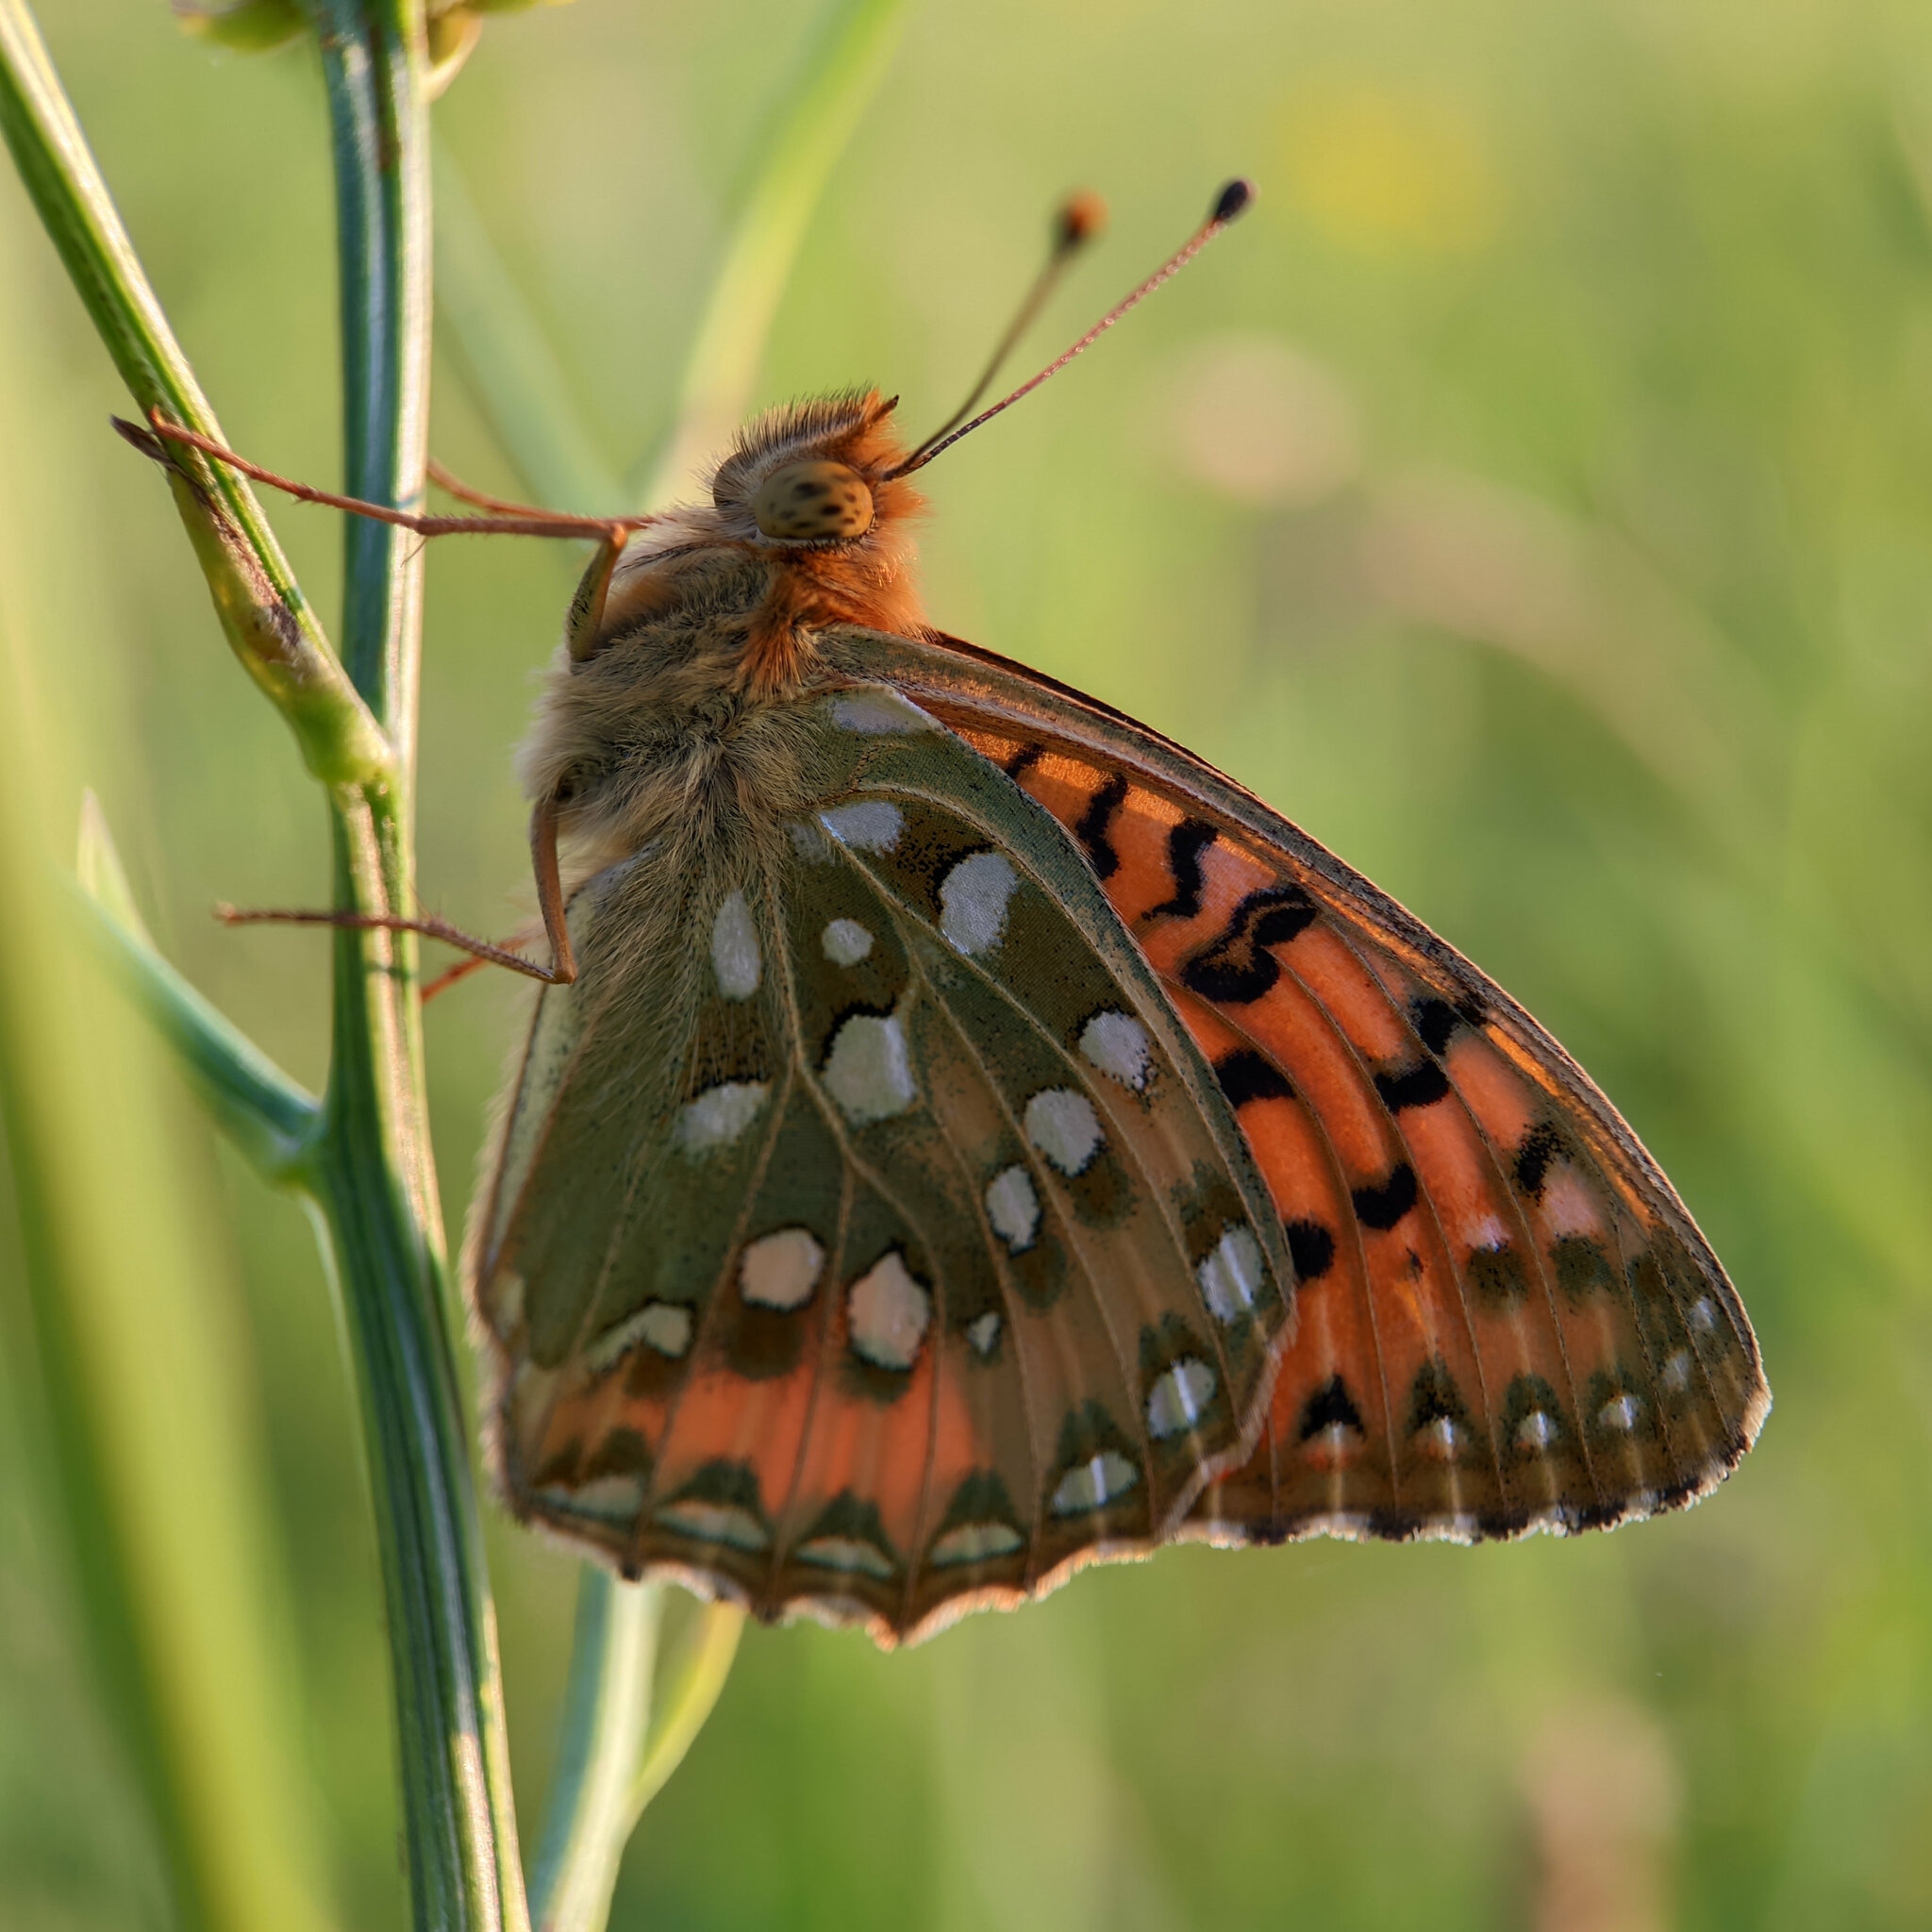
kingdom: Animalia
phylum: Arthropoda
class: Insecta
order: Lepidoptera
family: Nymphalidae
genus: Speyeria
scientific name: Speyeria aglaja
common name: Dark green fritillary
